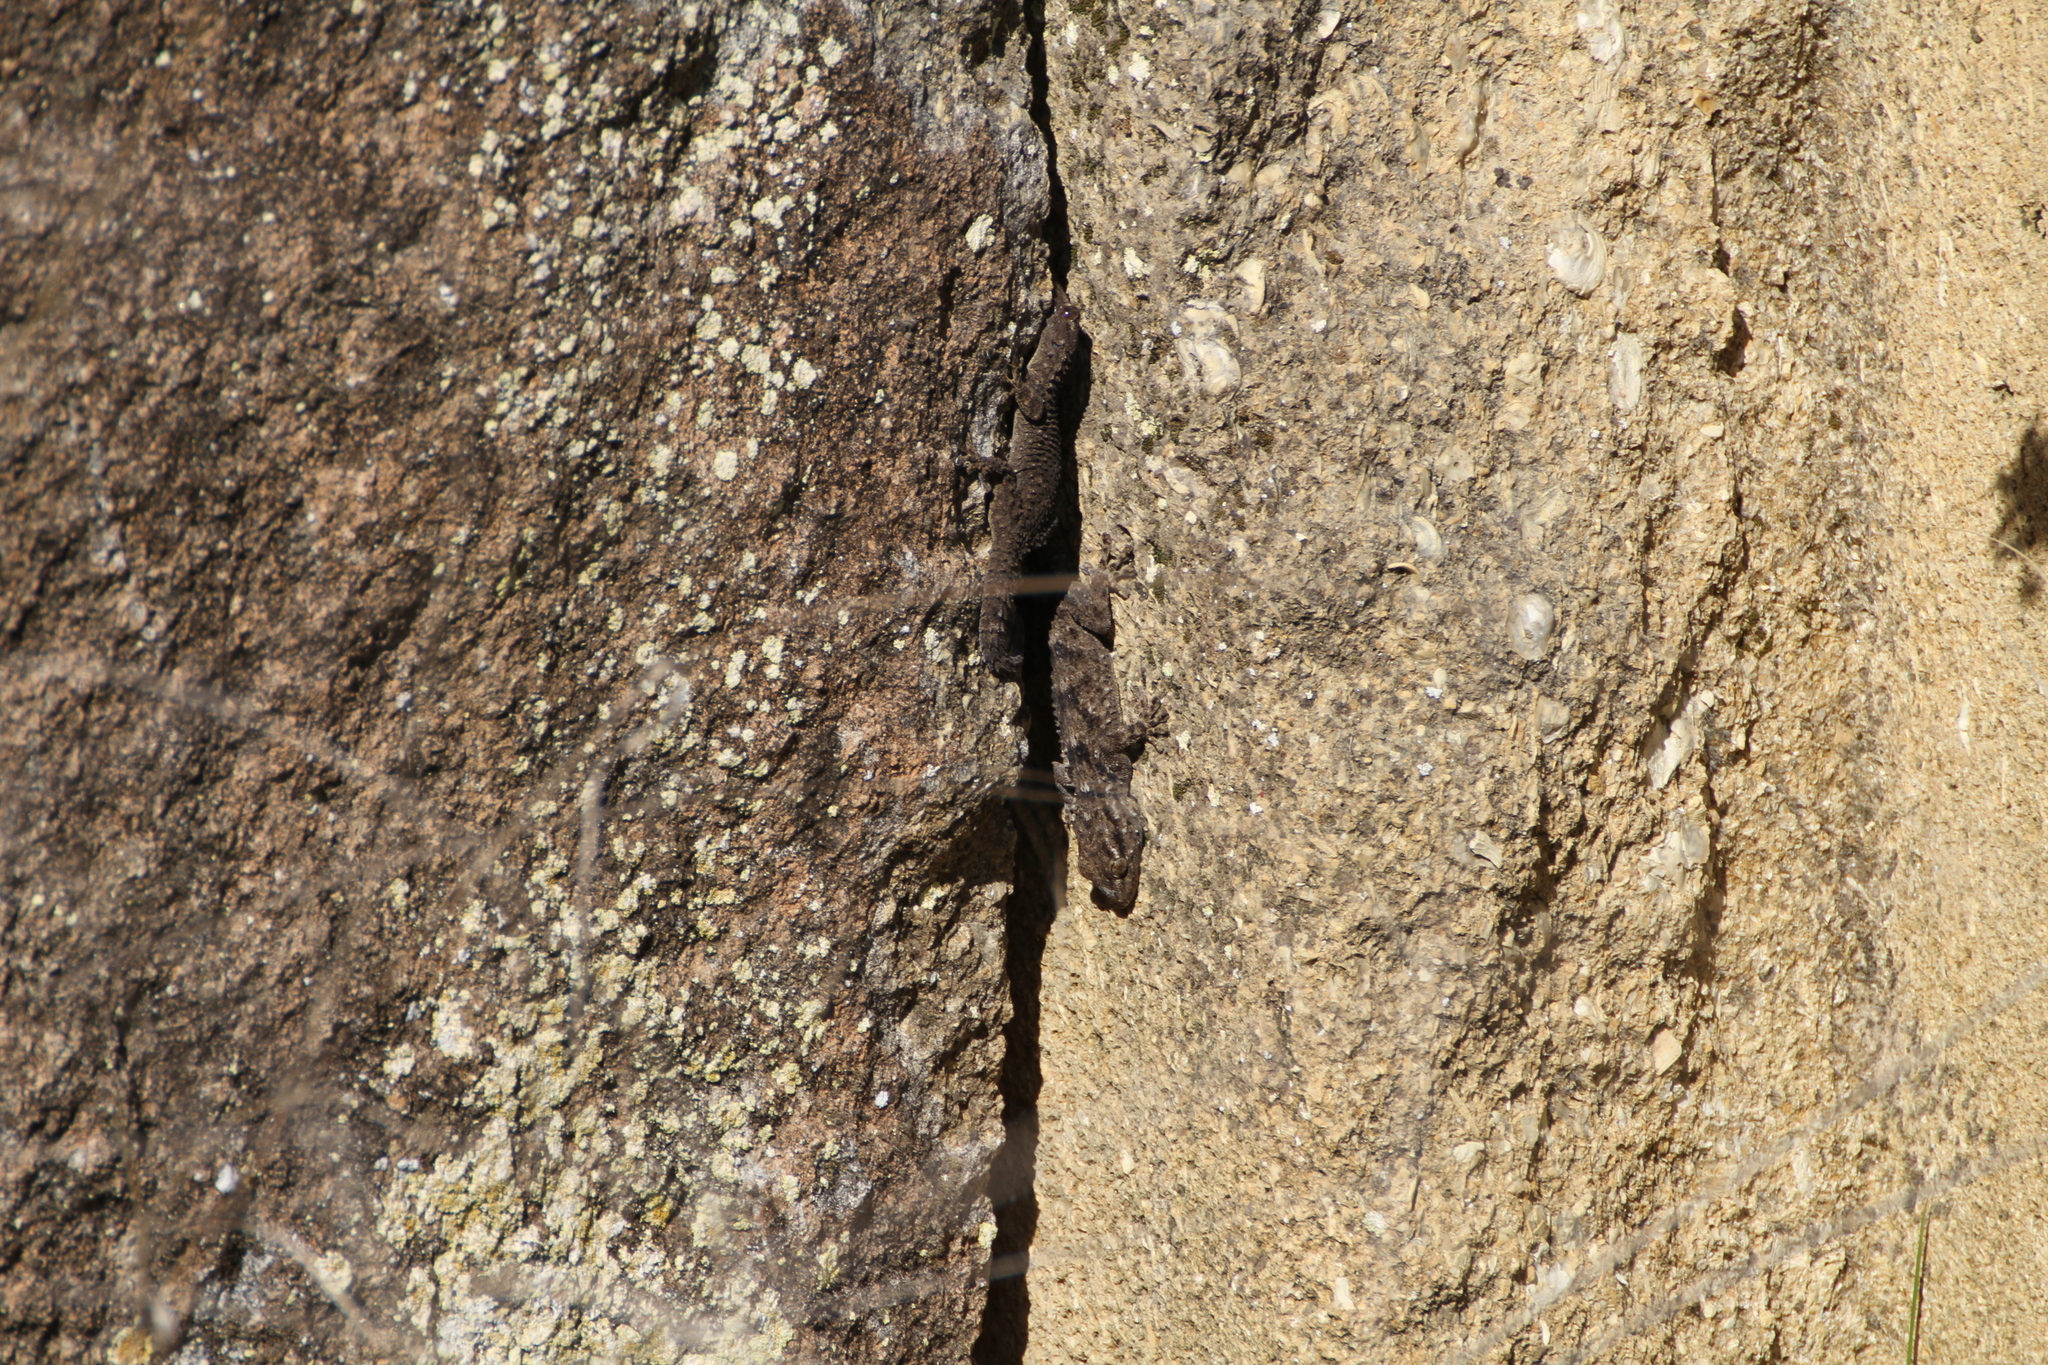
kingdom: Animalia
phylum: Chordata
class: Squamata
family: Phyllodactylidae
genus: Tarentola
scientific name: Tarentola mauritanica
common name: Moorish gecko
